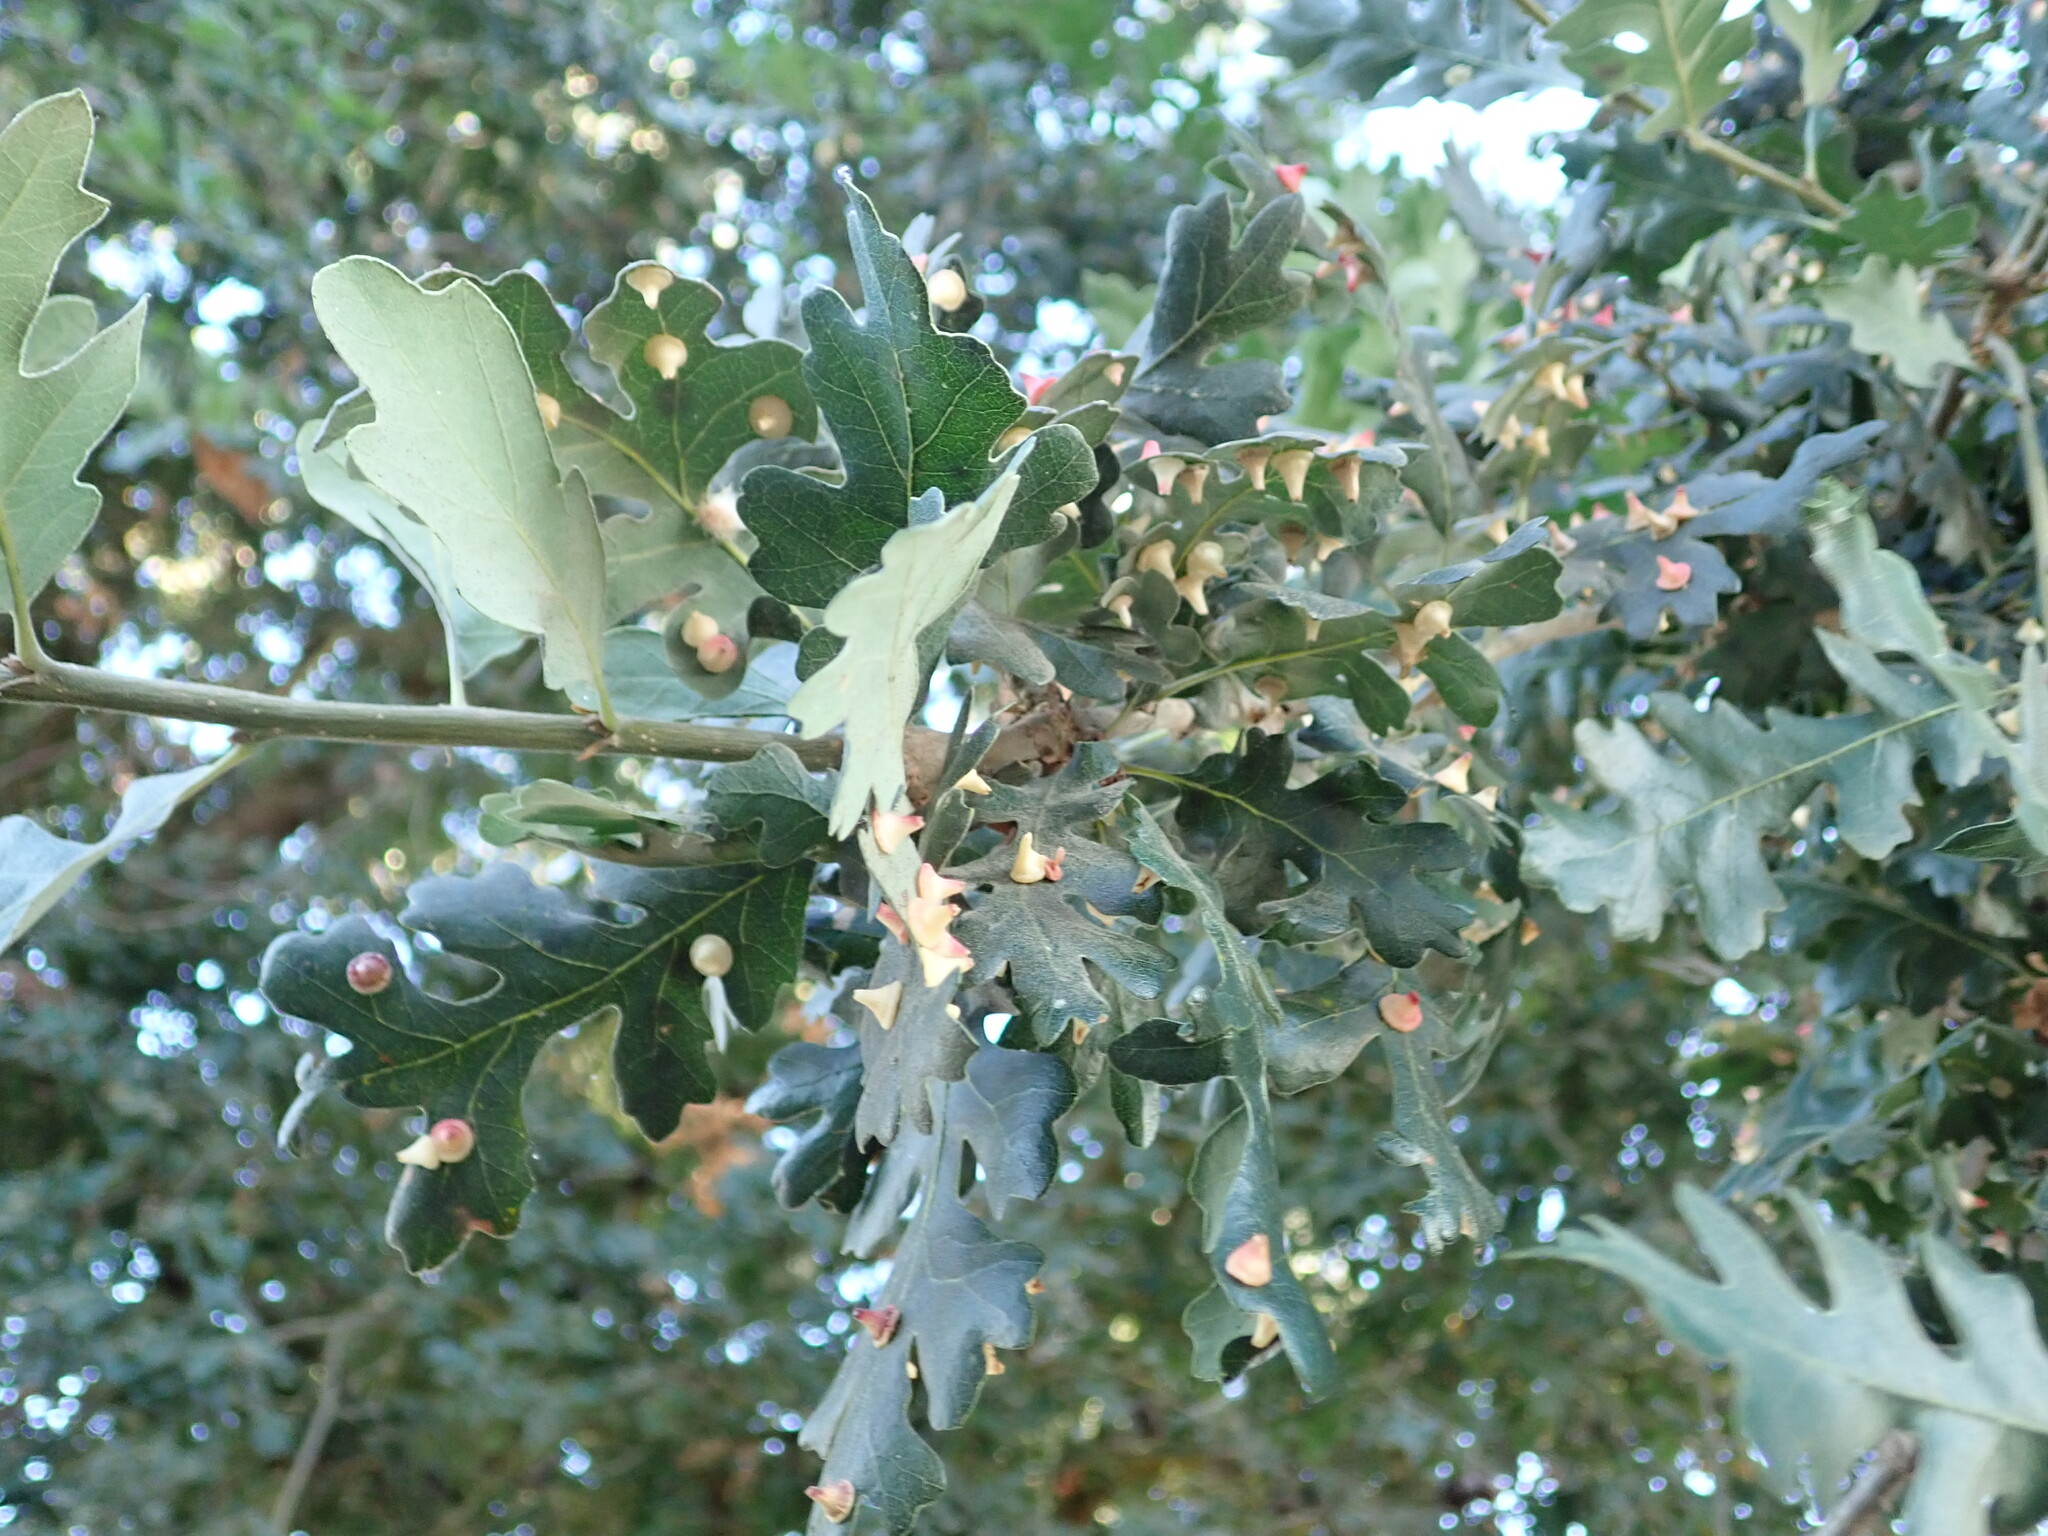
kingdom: Animalia
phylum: Arthropoda
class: Insecta
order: Hymenoptera
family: Cynipidae
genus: Andricus
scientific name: Andricus
